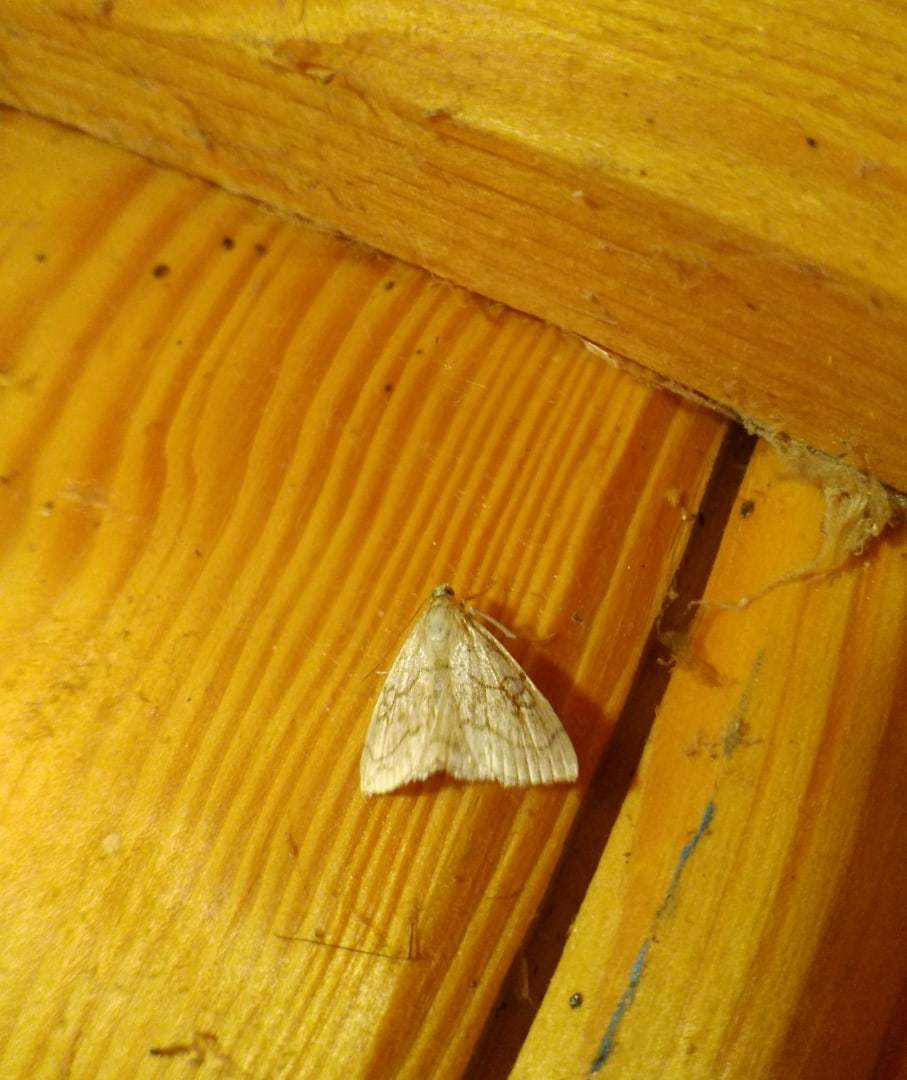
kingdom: Animalia
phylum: Arthropoda
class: Insecta
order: Lepidoptera
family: Crambidae
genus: Evergestis
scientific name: Evergestis pallidata
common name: Chequered pearl
